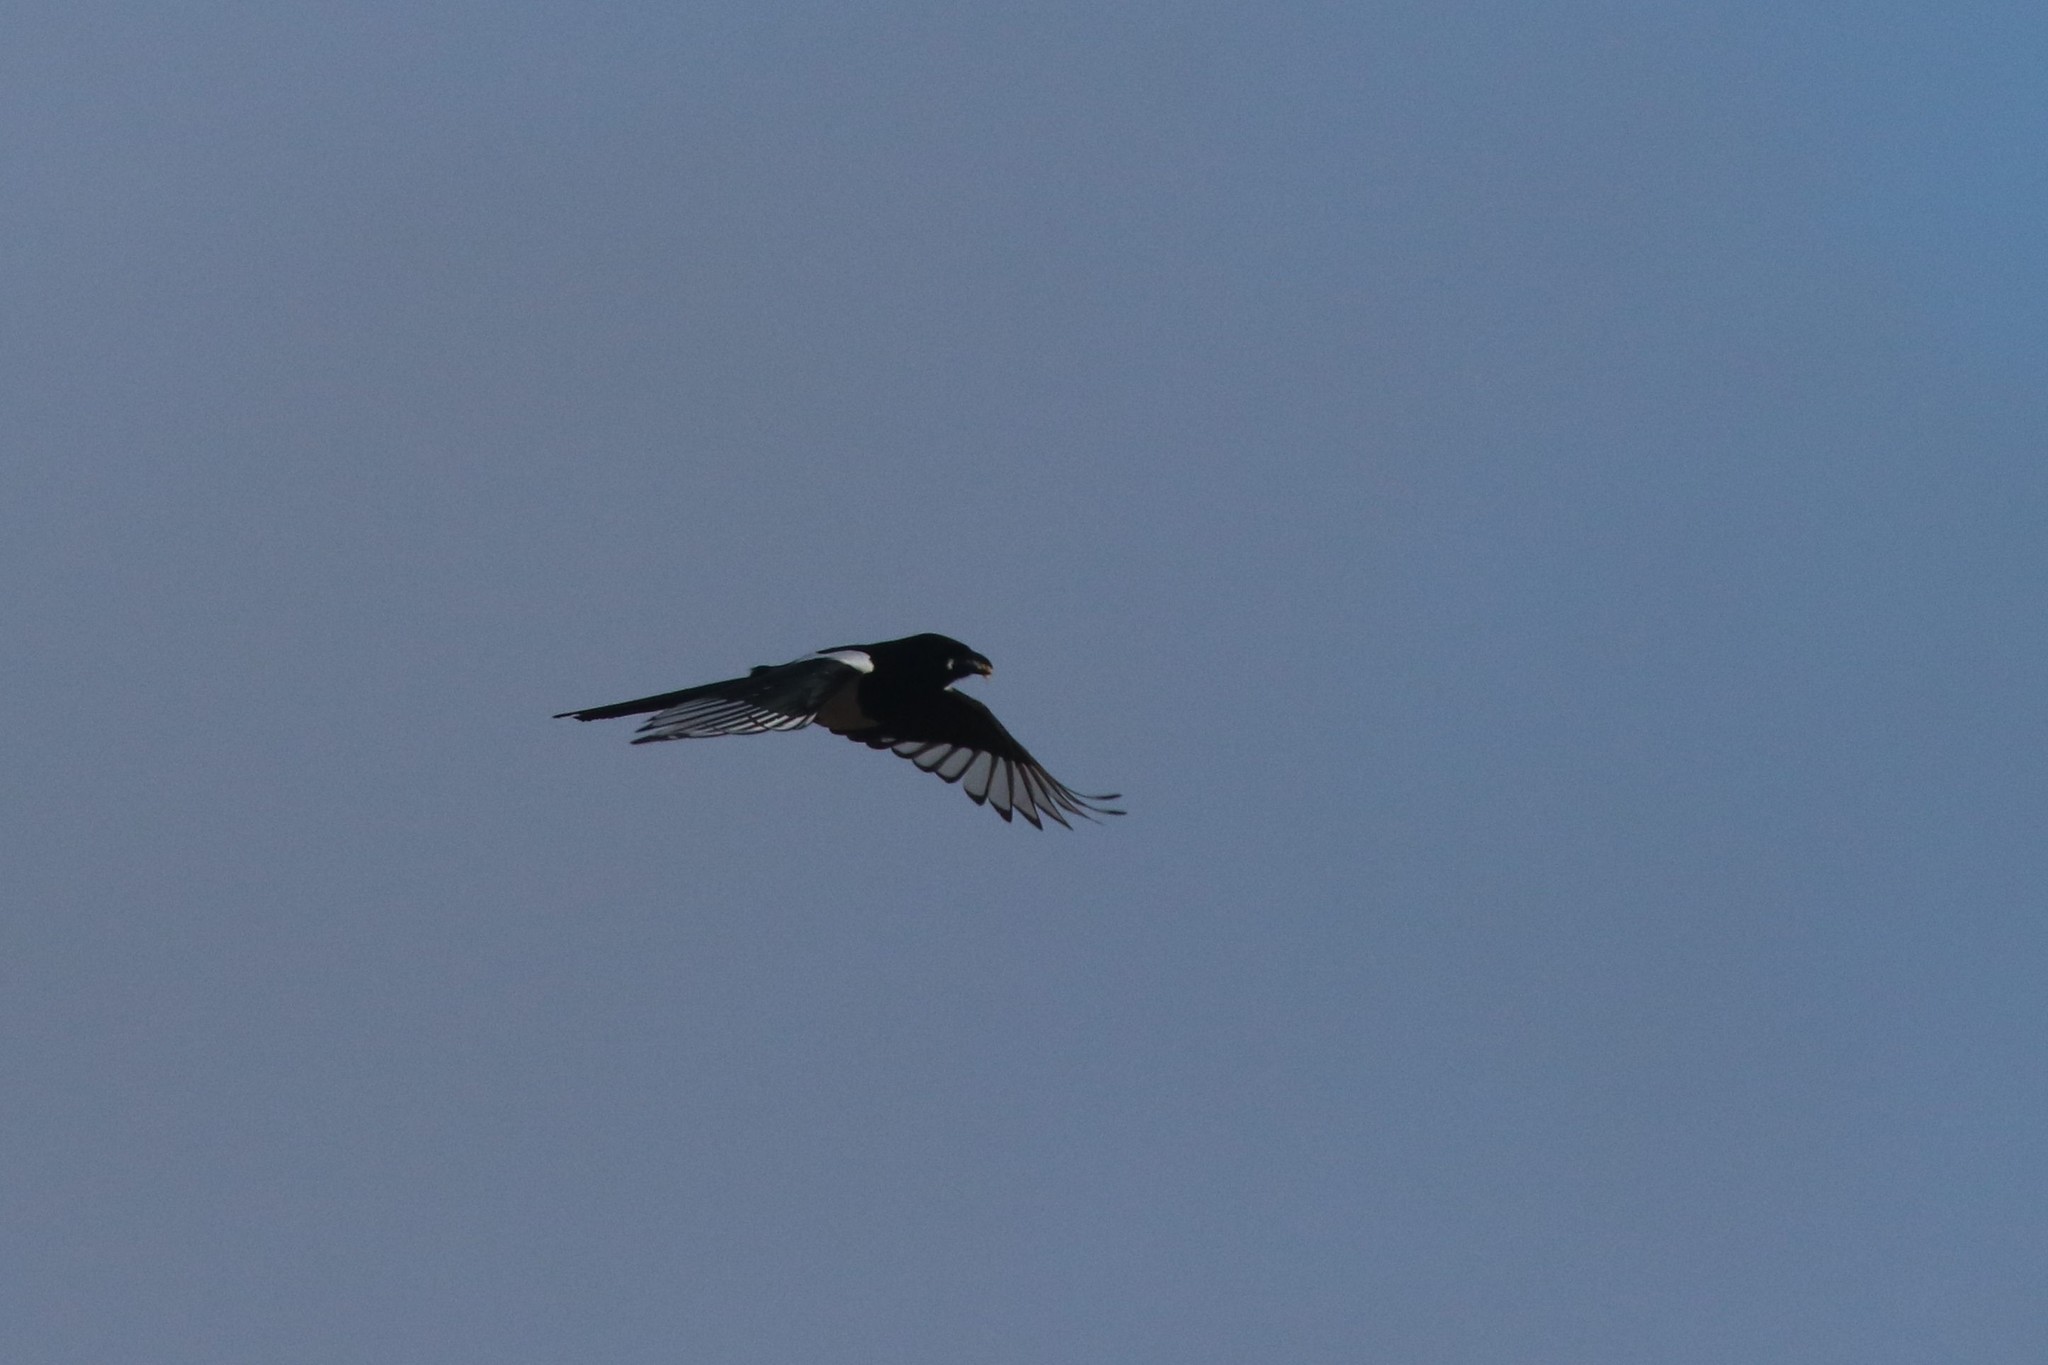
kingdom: Animalia
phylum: Chordata
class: Aves
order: Passeriformes
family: Corvidae
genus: Pica
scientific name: Pica pica
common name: Eurasian magpie
